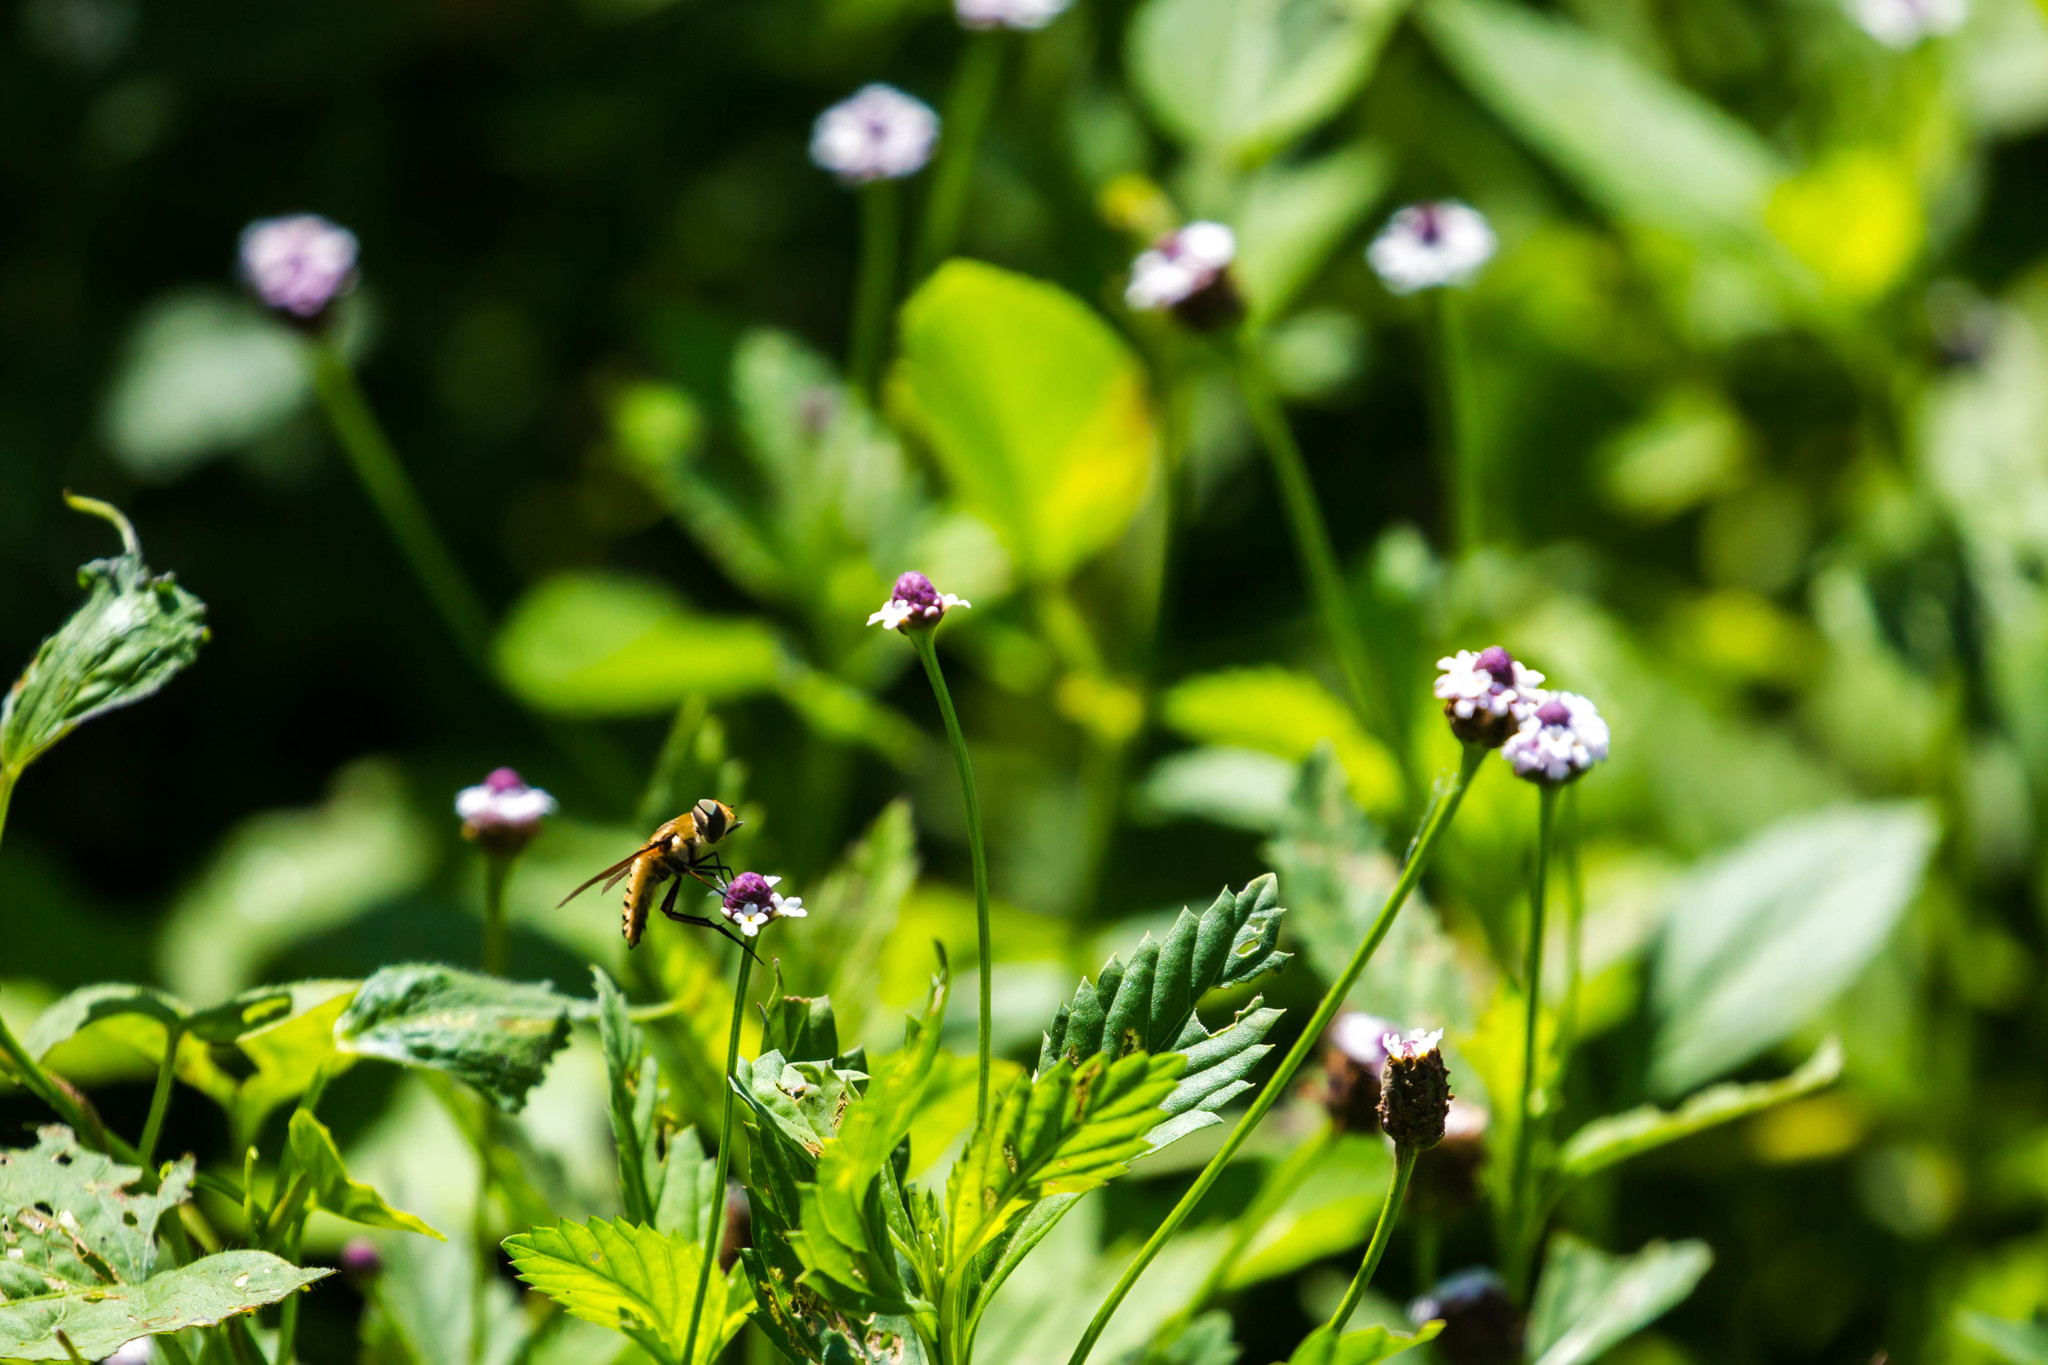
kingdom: Animalia
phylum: Arthropoda
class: Insecta
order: Diptera
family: Bombyliidae
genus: Poecilanthrax
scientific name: Poecilanthrax lucifer
